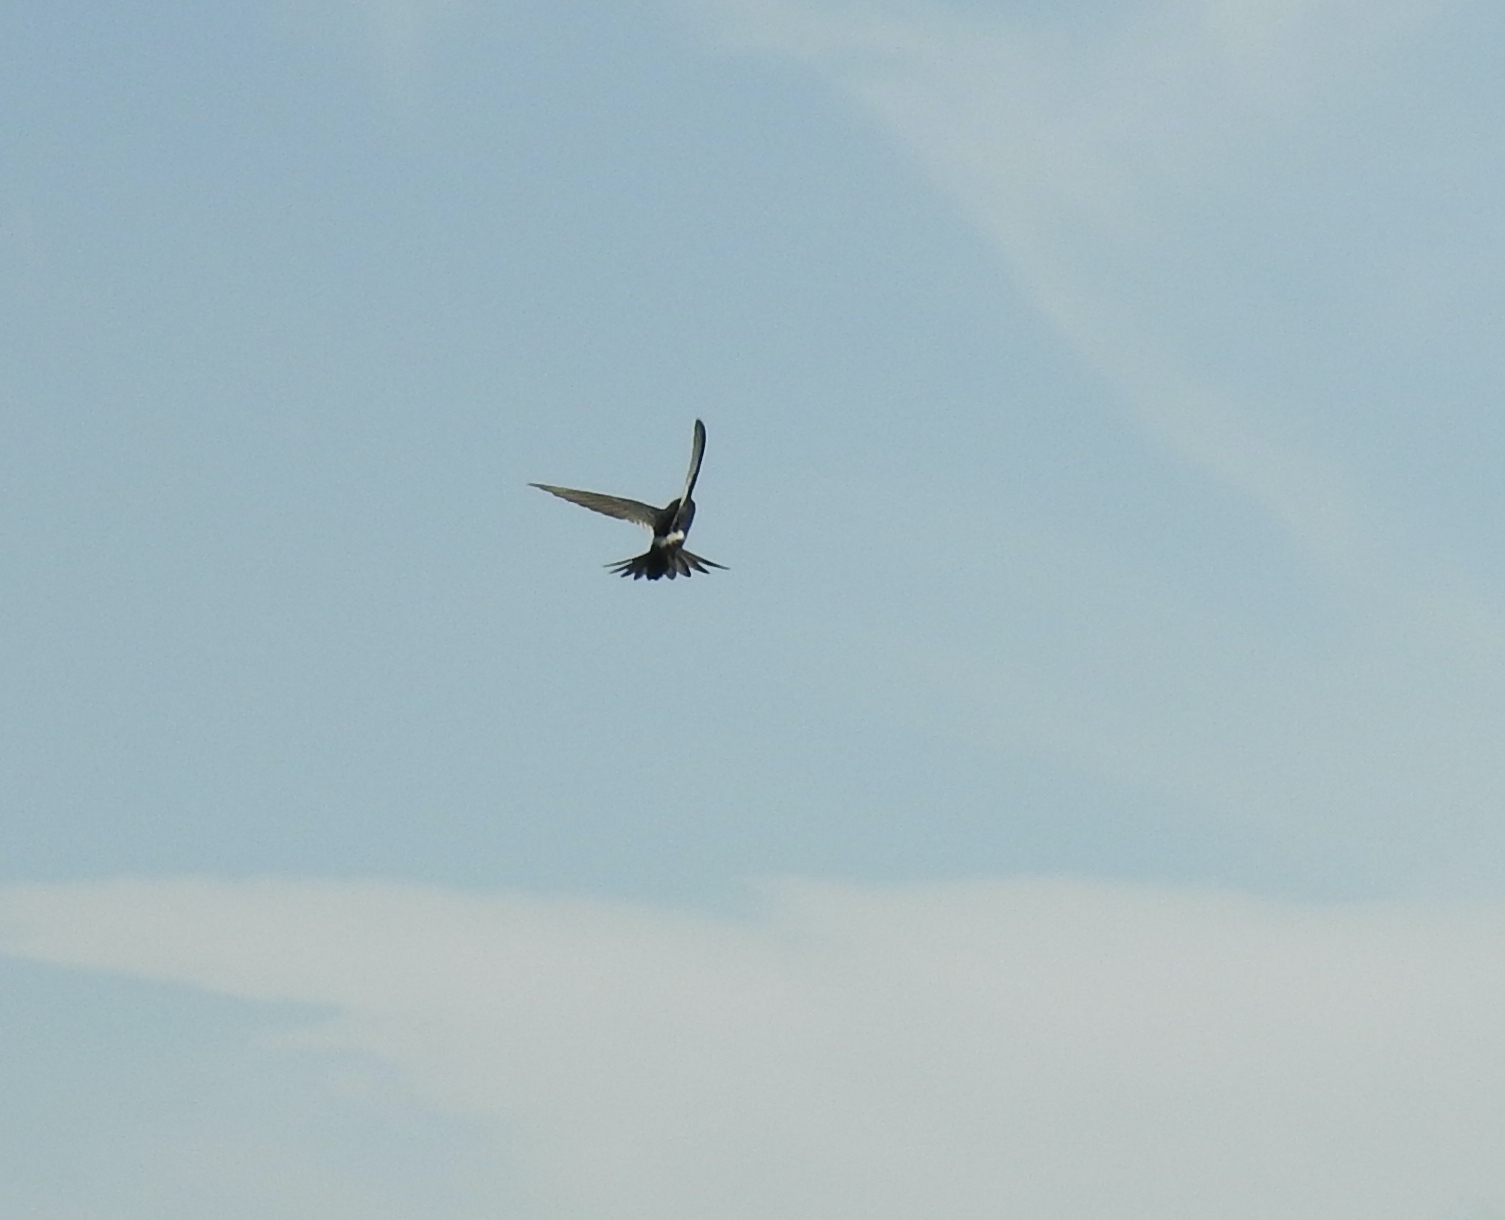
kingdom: Animalia
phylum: Chordata
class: Aves
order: Apodiformes
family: Apodidae
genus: Apus
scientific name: Apus caffer
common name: White-rumped swift
